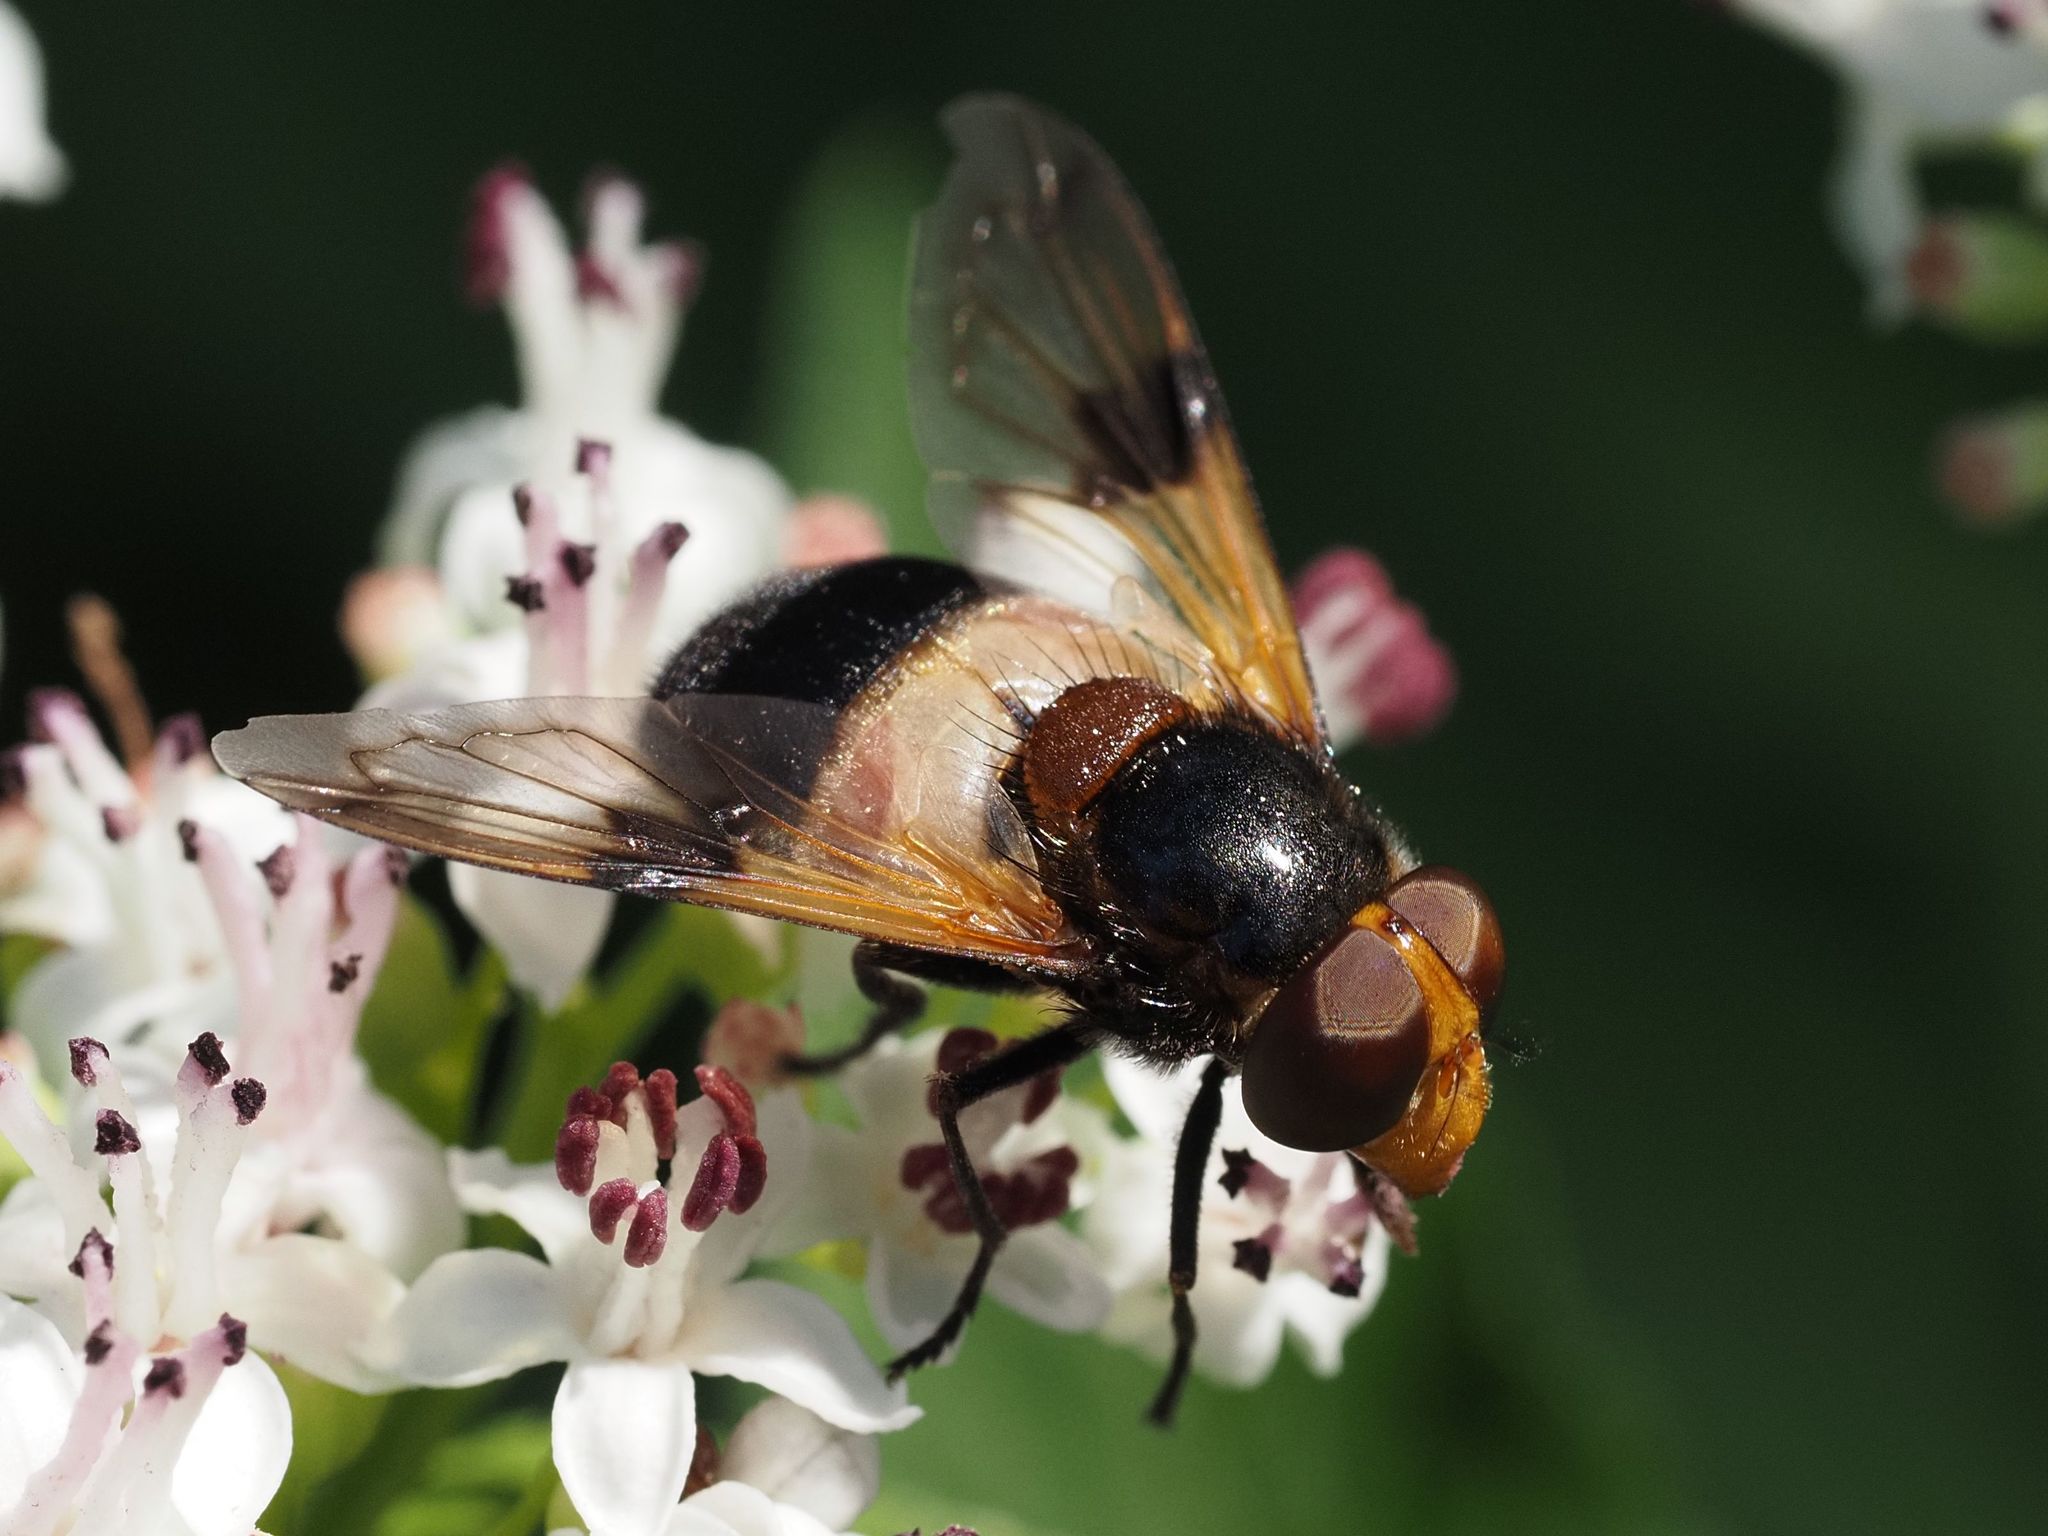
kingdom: Animalia
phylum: Arthropoda
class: Insecta
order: Diptera
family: Syrphidae
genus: Volucella
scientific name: Volucella pellucens
